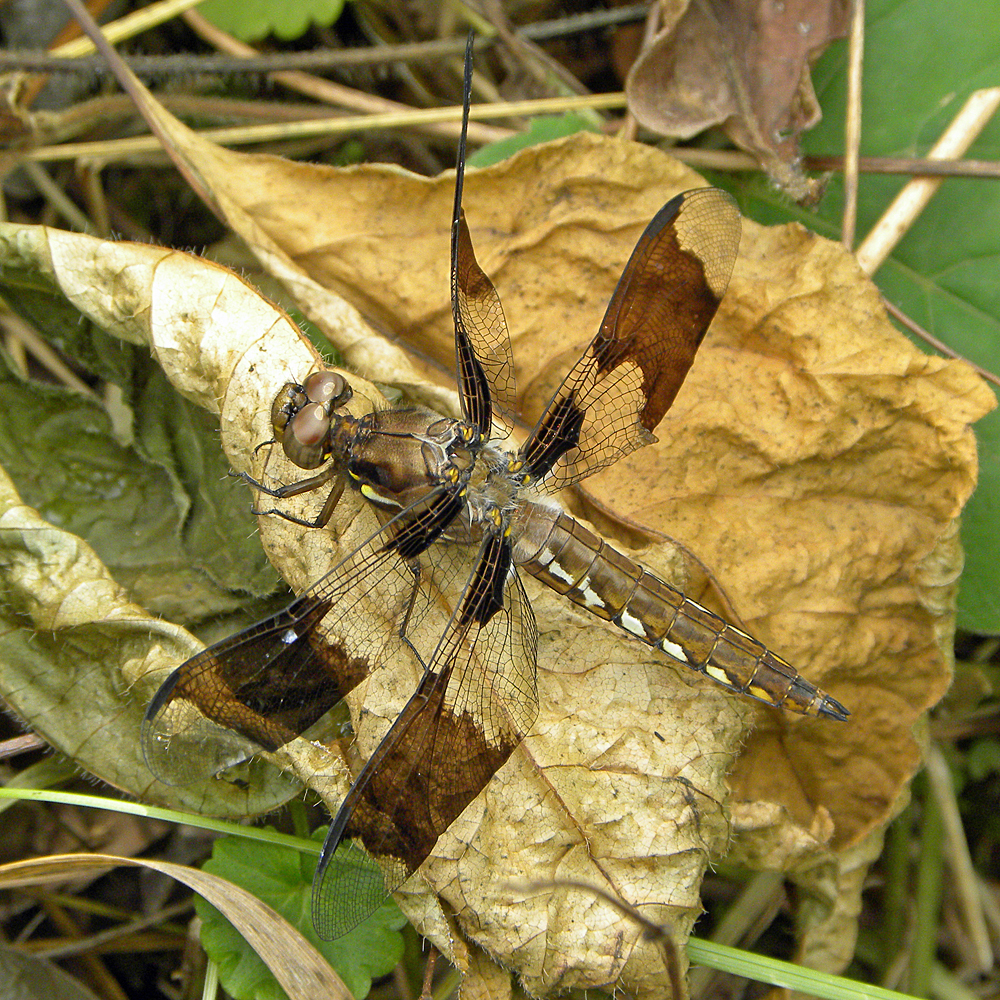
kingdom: Animalia
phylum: Arthropoda
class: Insecta
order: Odonata
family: Libellulidae
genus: Plathemis
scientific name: Plathemis lydia
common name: Common whitetail
